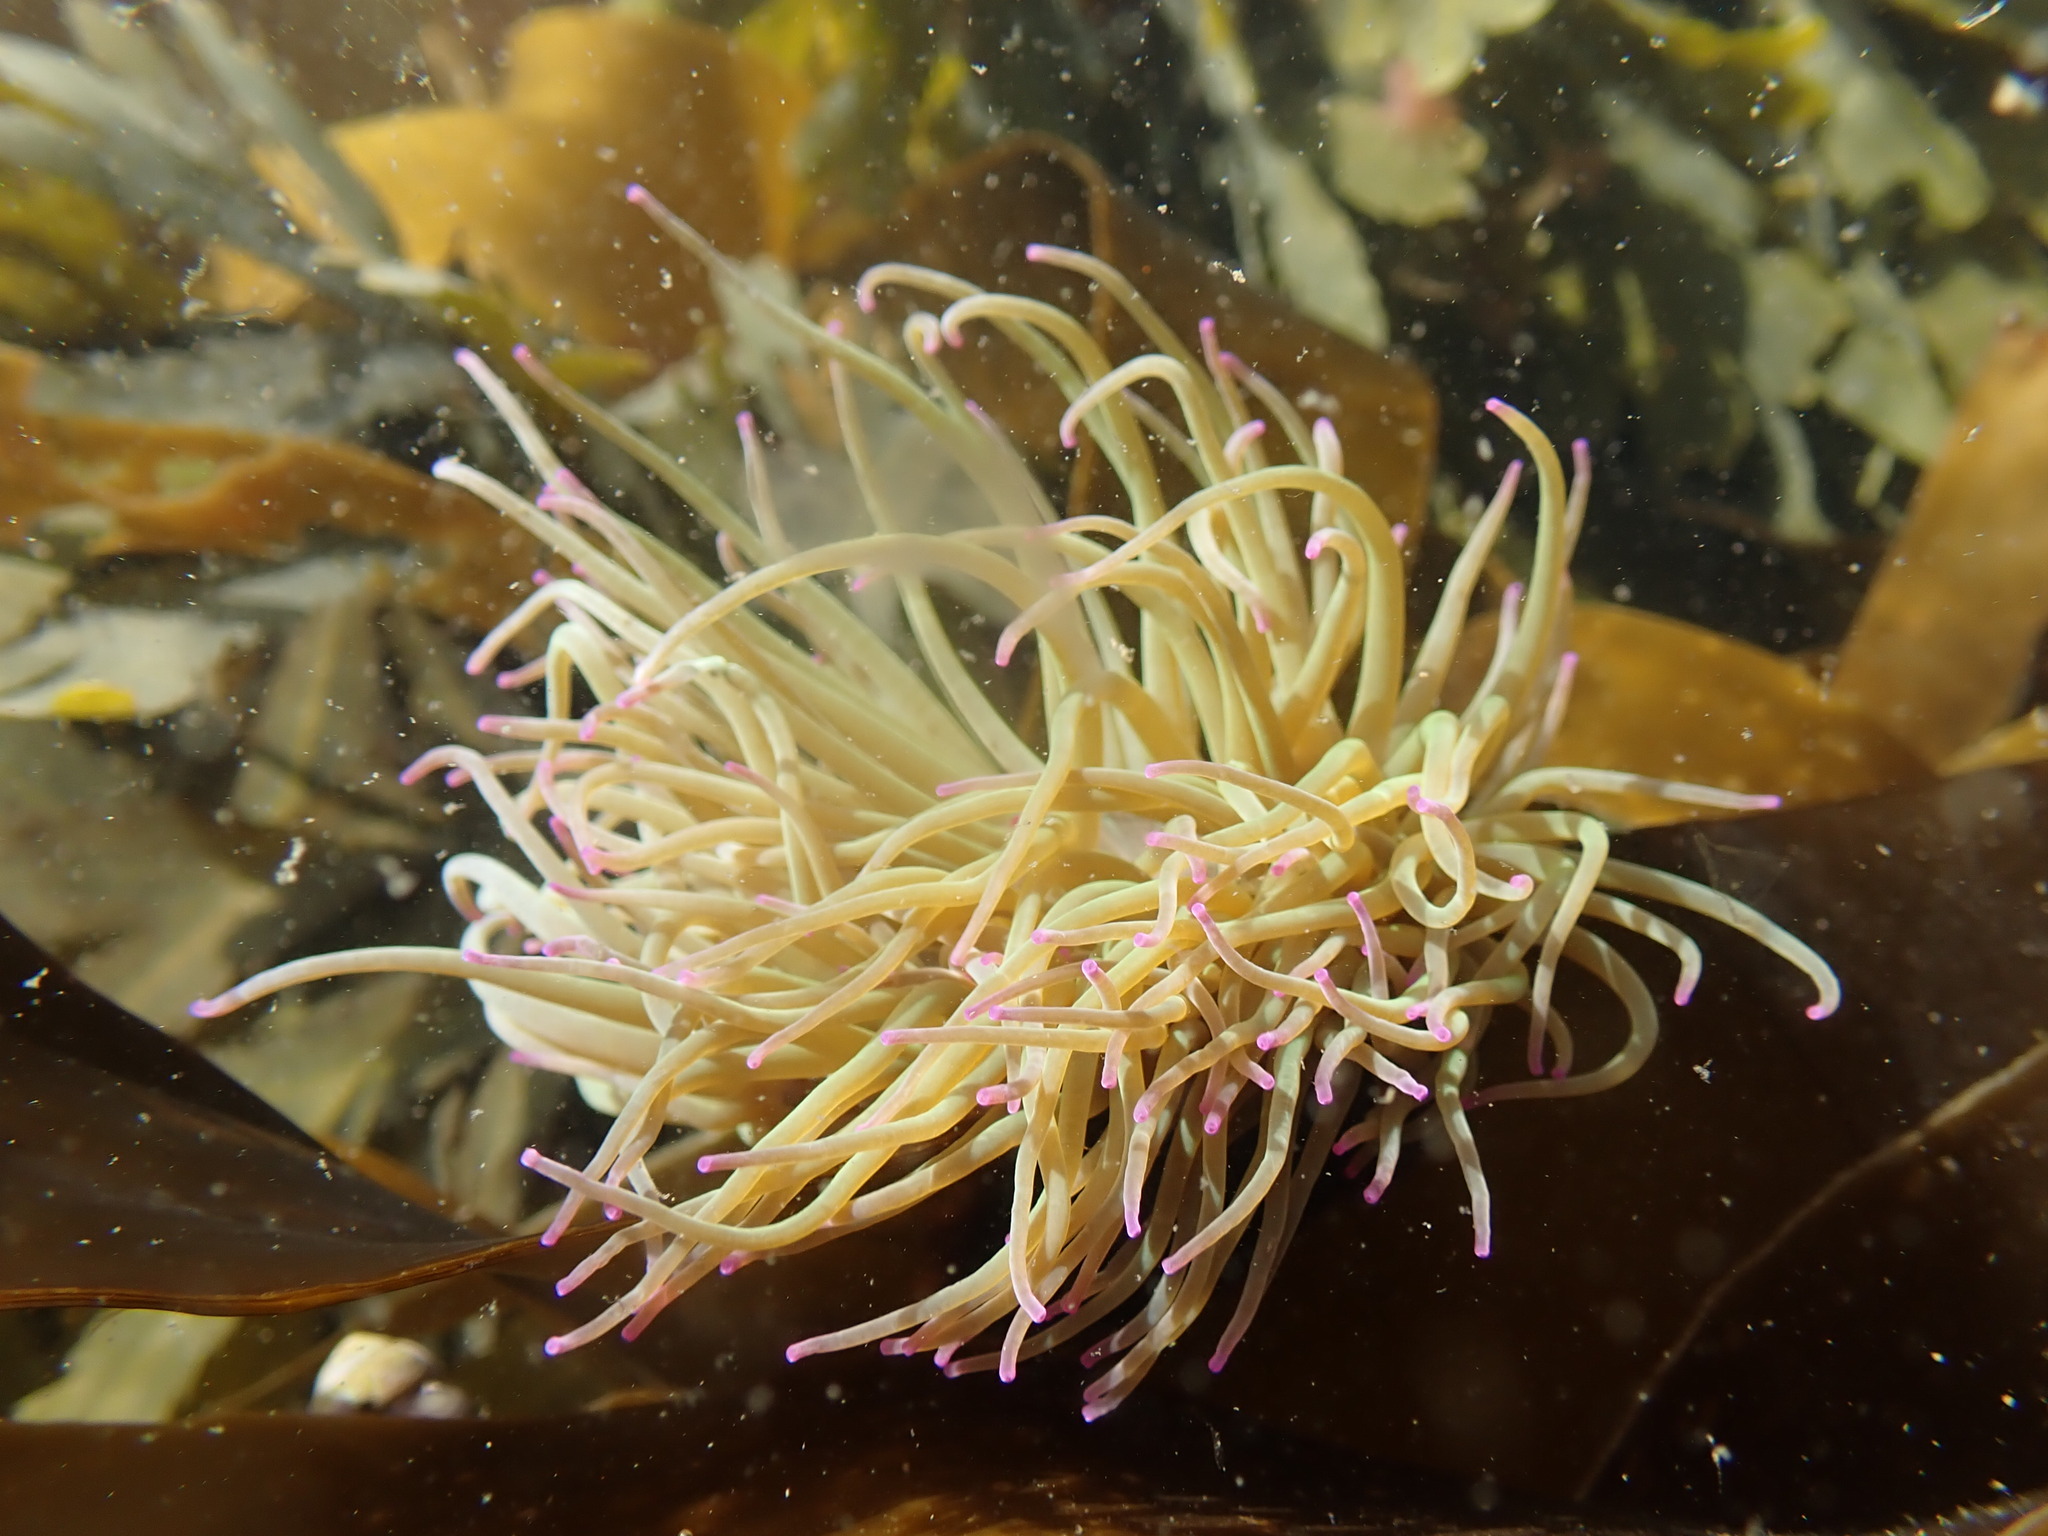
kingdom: Animalia
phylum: Cnidaria
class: Anthozoa
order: Actiniaria
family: Actiniidae
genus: Anemonia
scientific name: Anemonia viridis
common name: Snakelocks anemone
